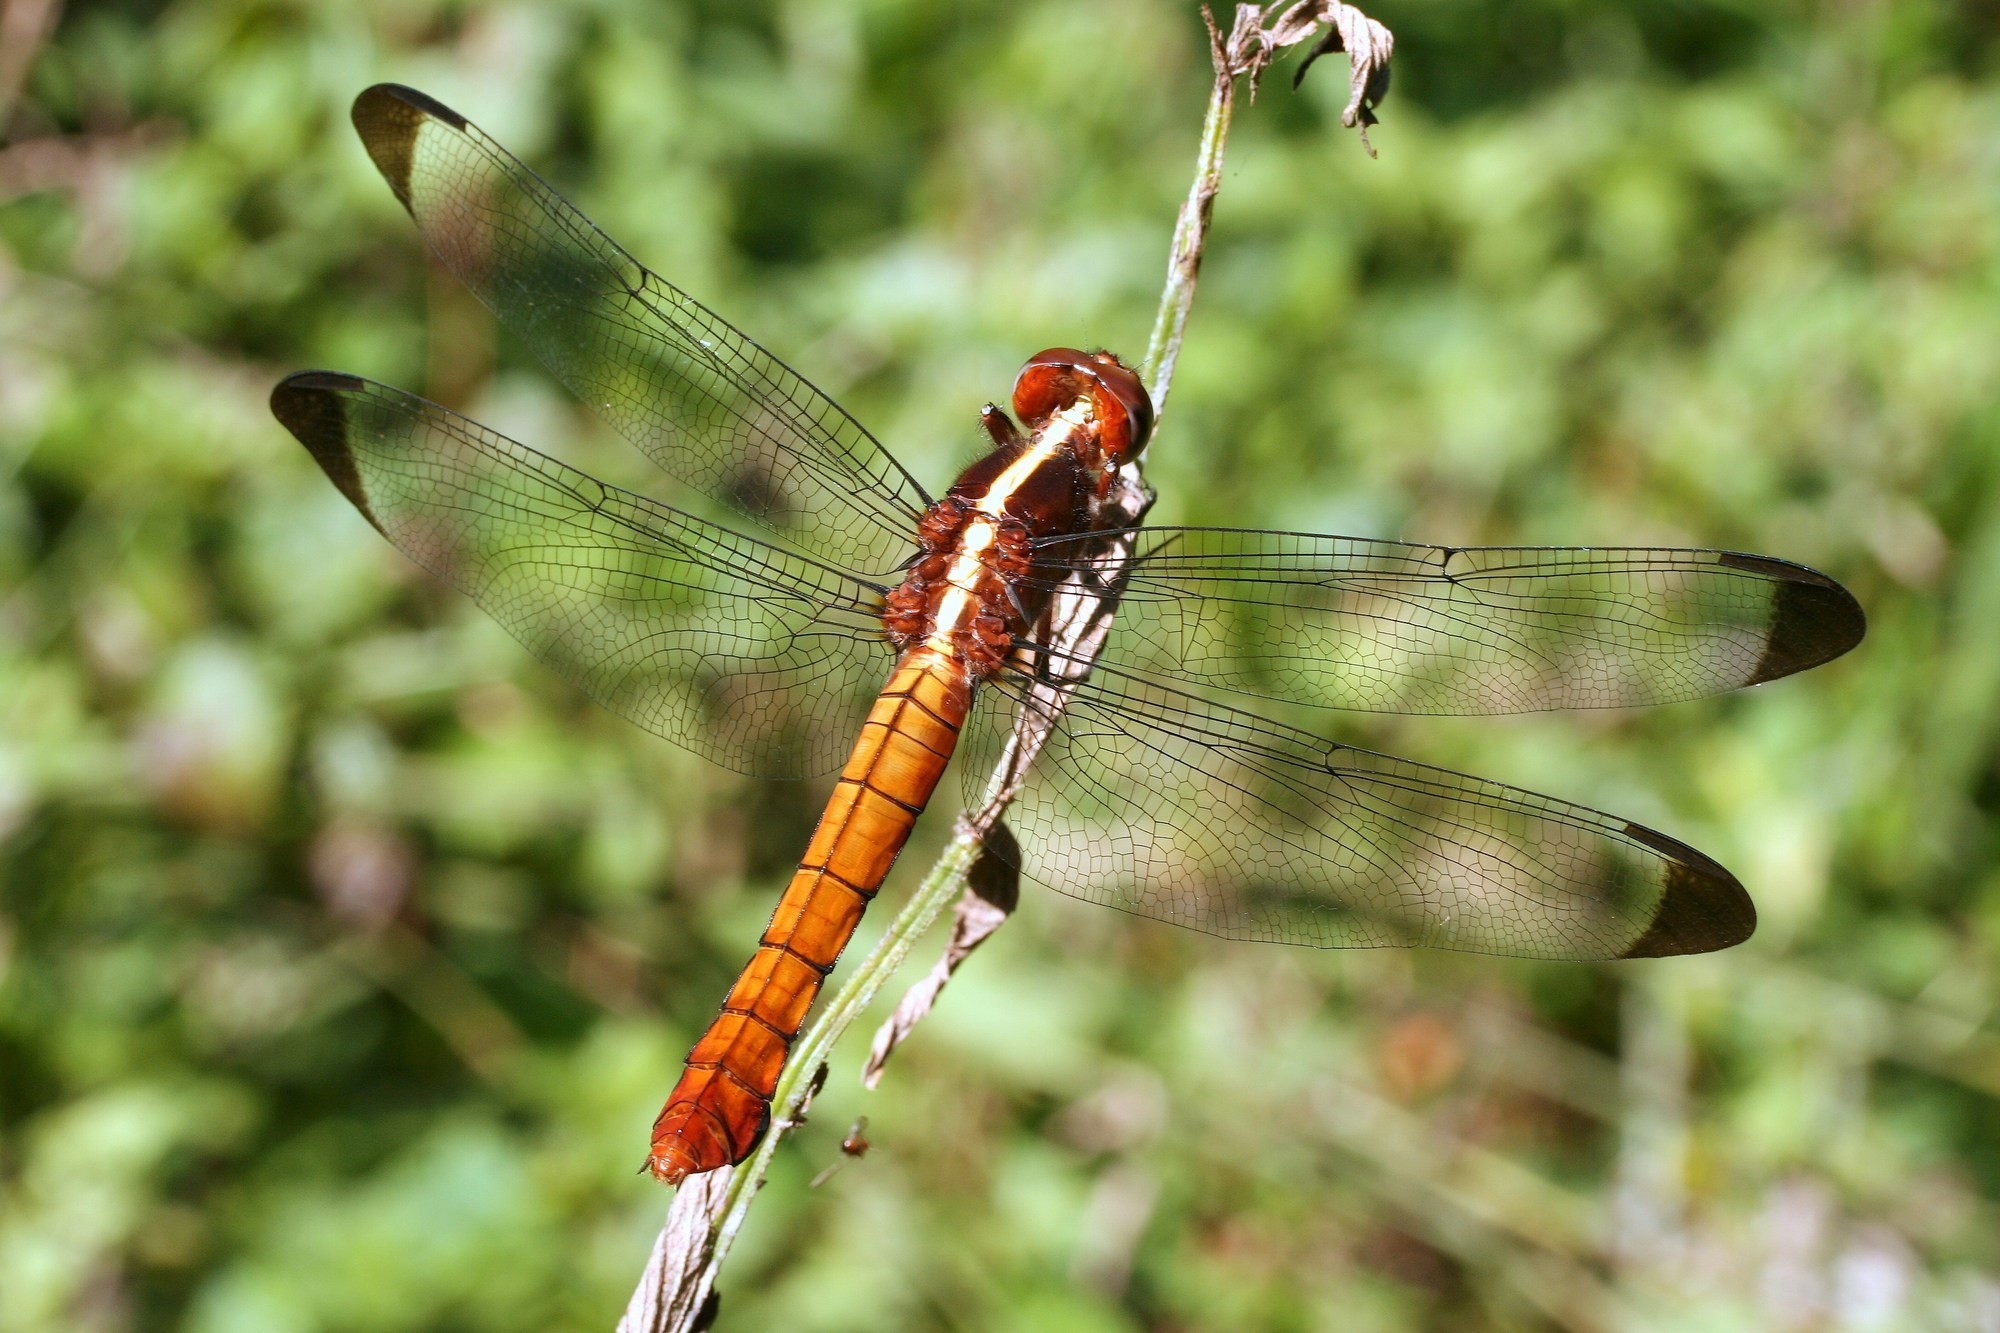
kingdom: Animalia
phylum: Arthropoda
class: Insecta
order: Odonata
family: Libellulidae
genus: Thermorthemis
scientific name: Thermorthemis madagascariensis
